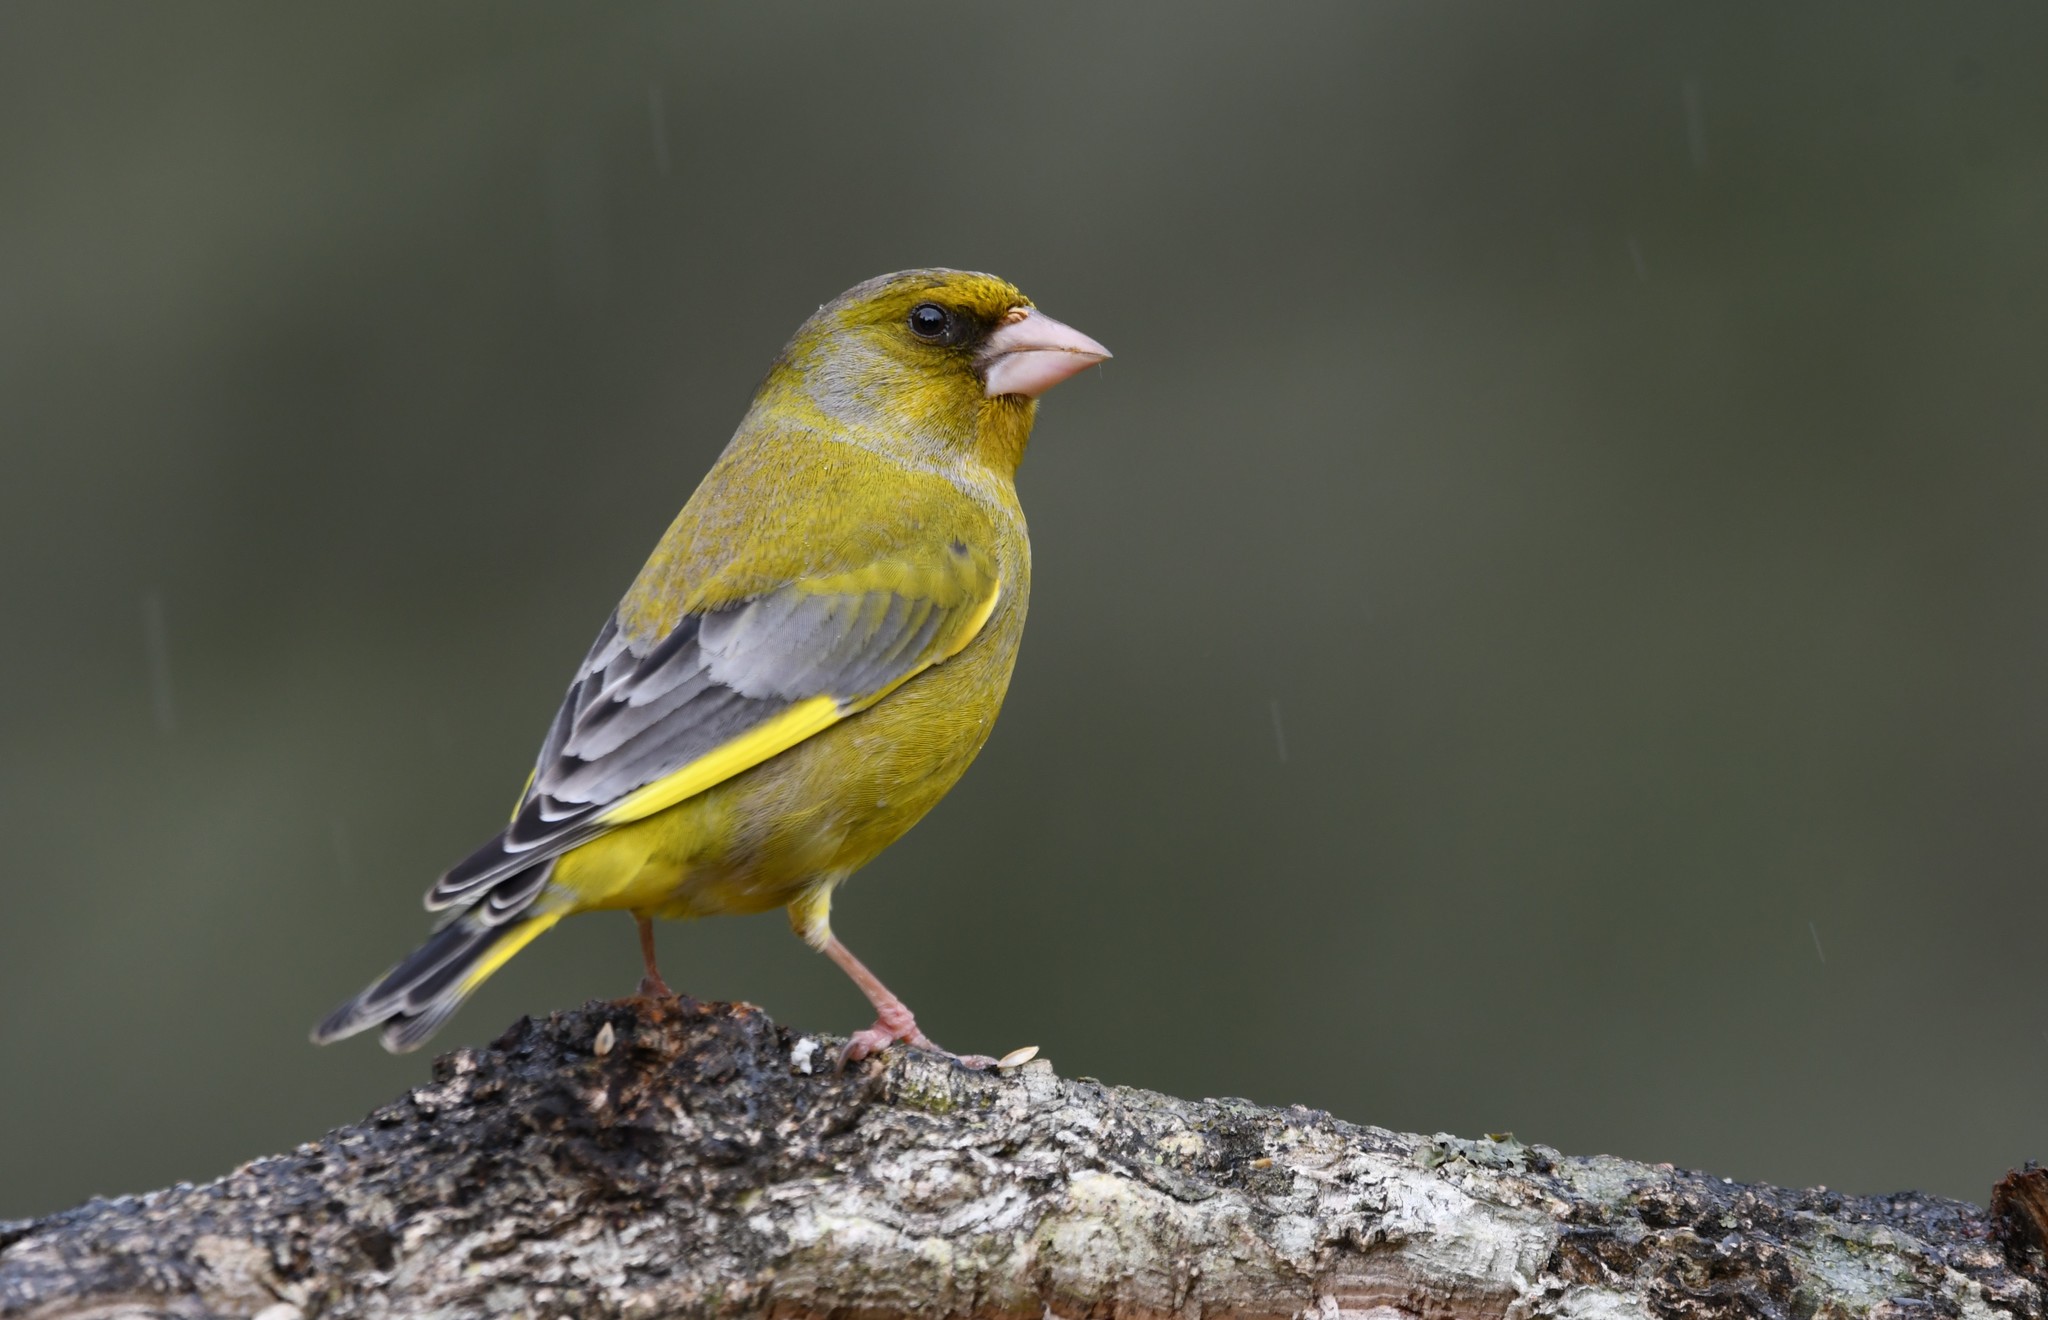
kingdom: Plantae
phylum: Tracheophyta
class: Liliopsida
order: Poales
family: Poaceae
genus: Chloris
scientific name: Chloris chloris
